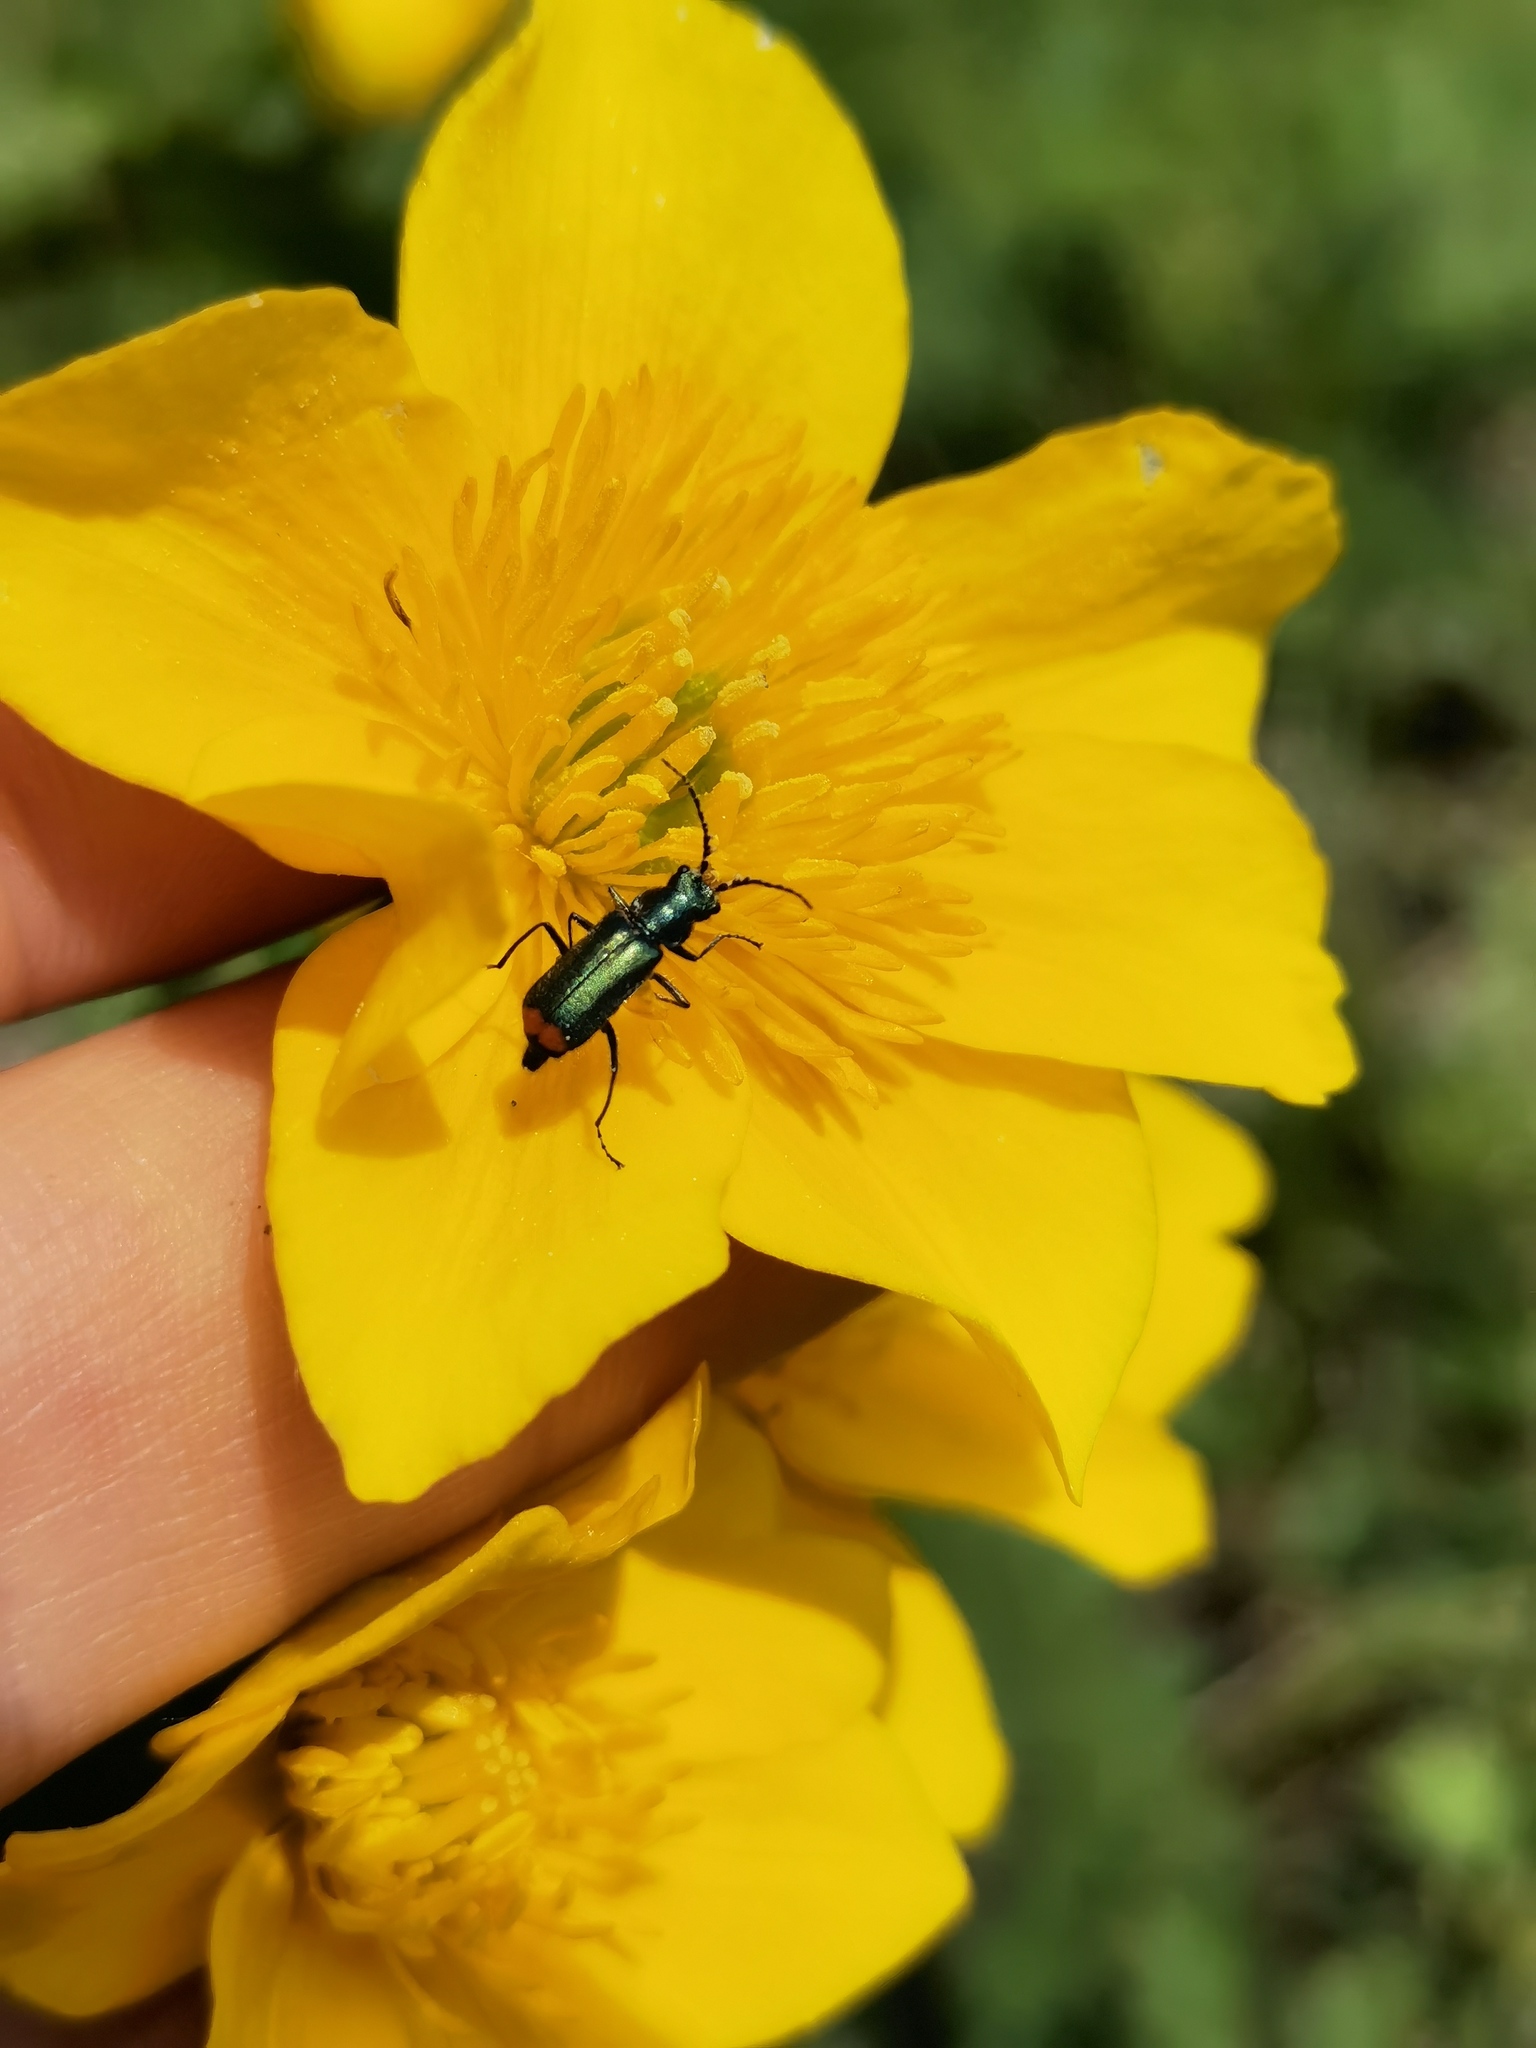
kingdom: Animalia
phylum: Arthropoda
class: Insecta
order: Coleoptera
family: Melyridae
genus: Malachius
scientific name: Malachius bipustulatus
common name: Malachite beetle
